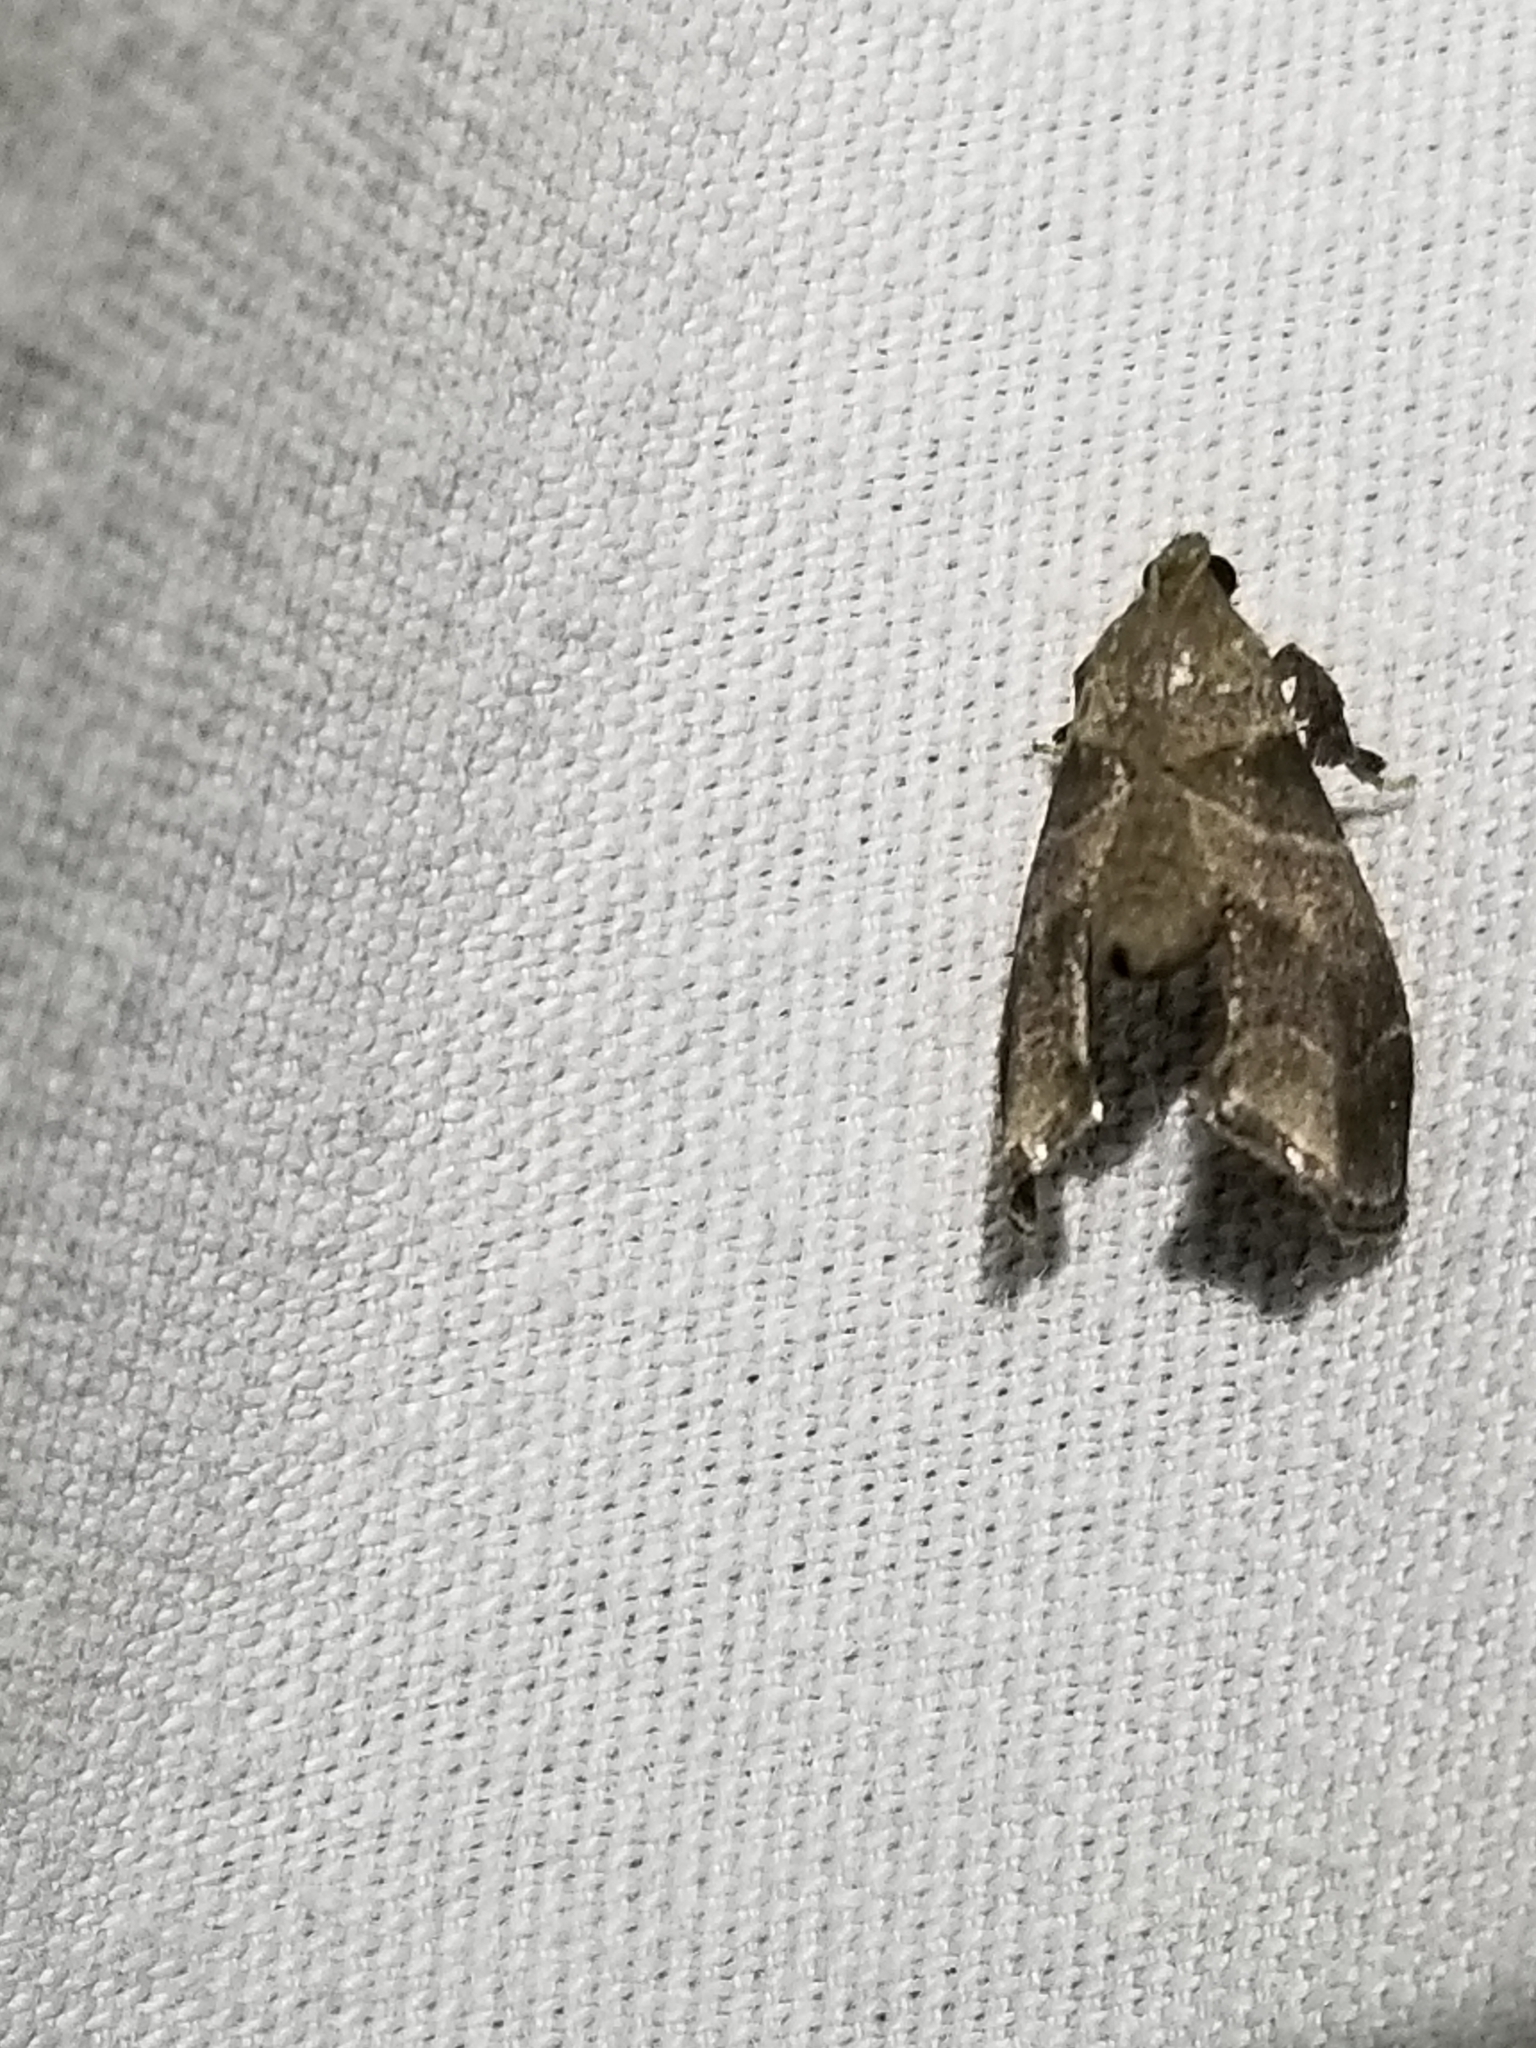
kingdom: Animalia
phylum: Arthropoda
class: Insecta
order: Lepidoptera
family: Pyralidae
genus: Tosale
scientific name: Tosale aucta
